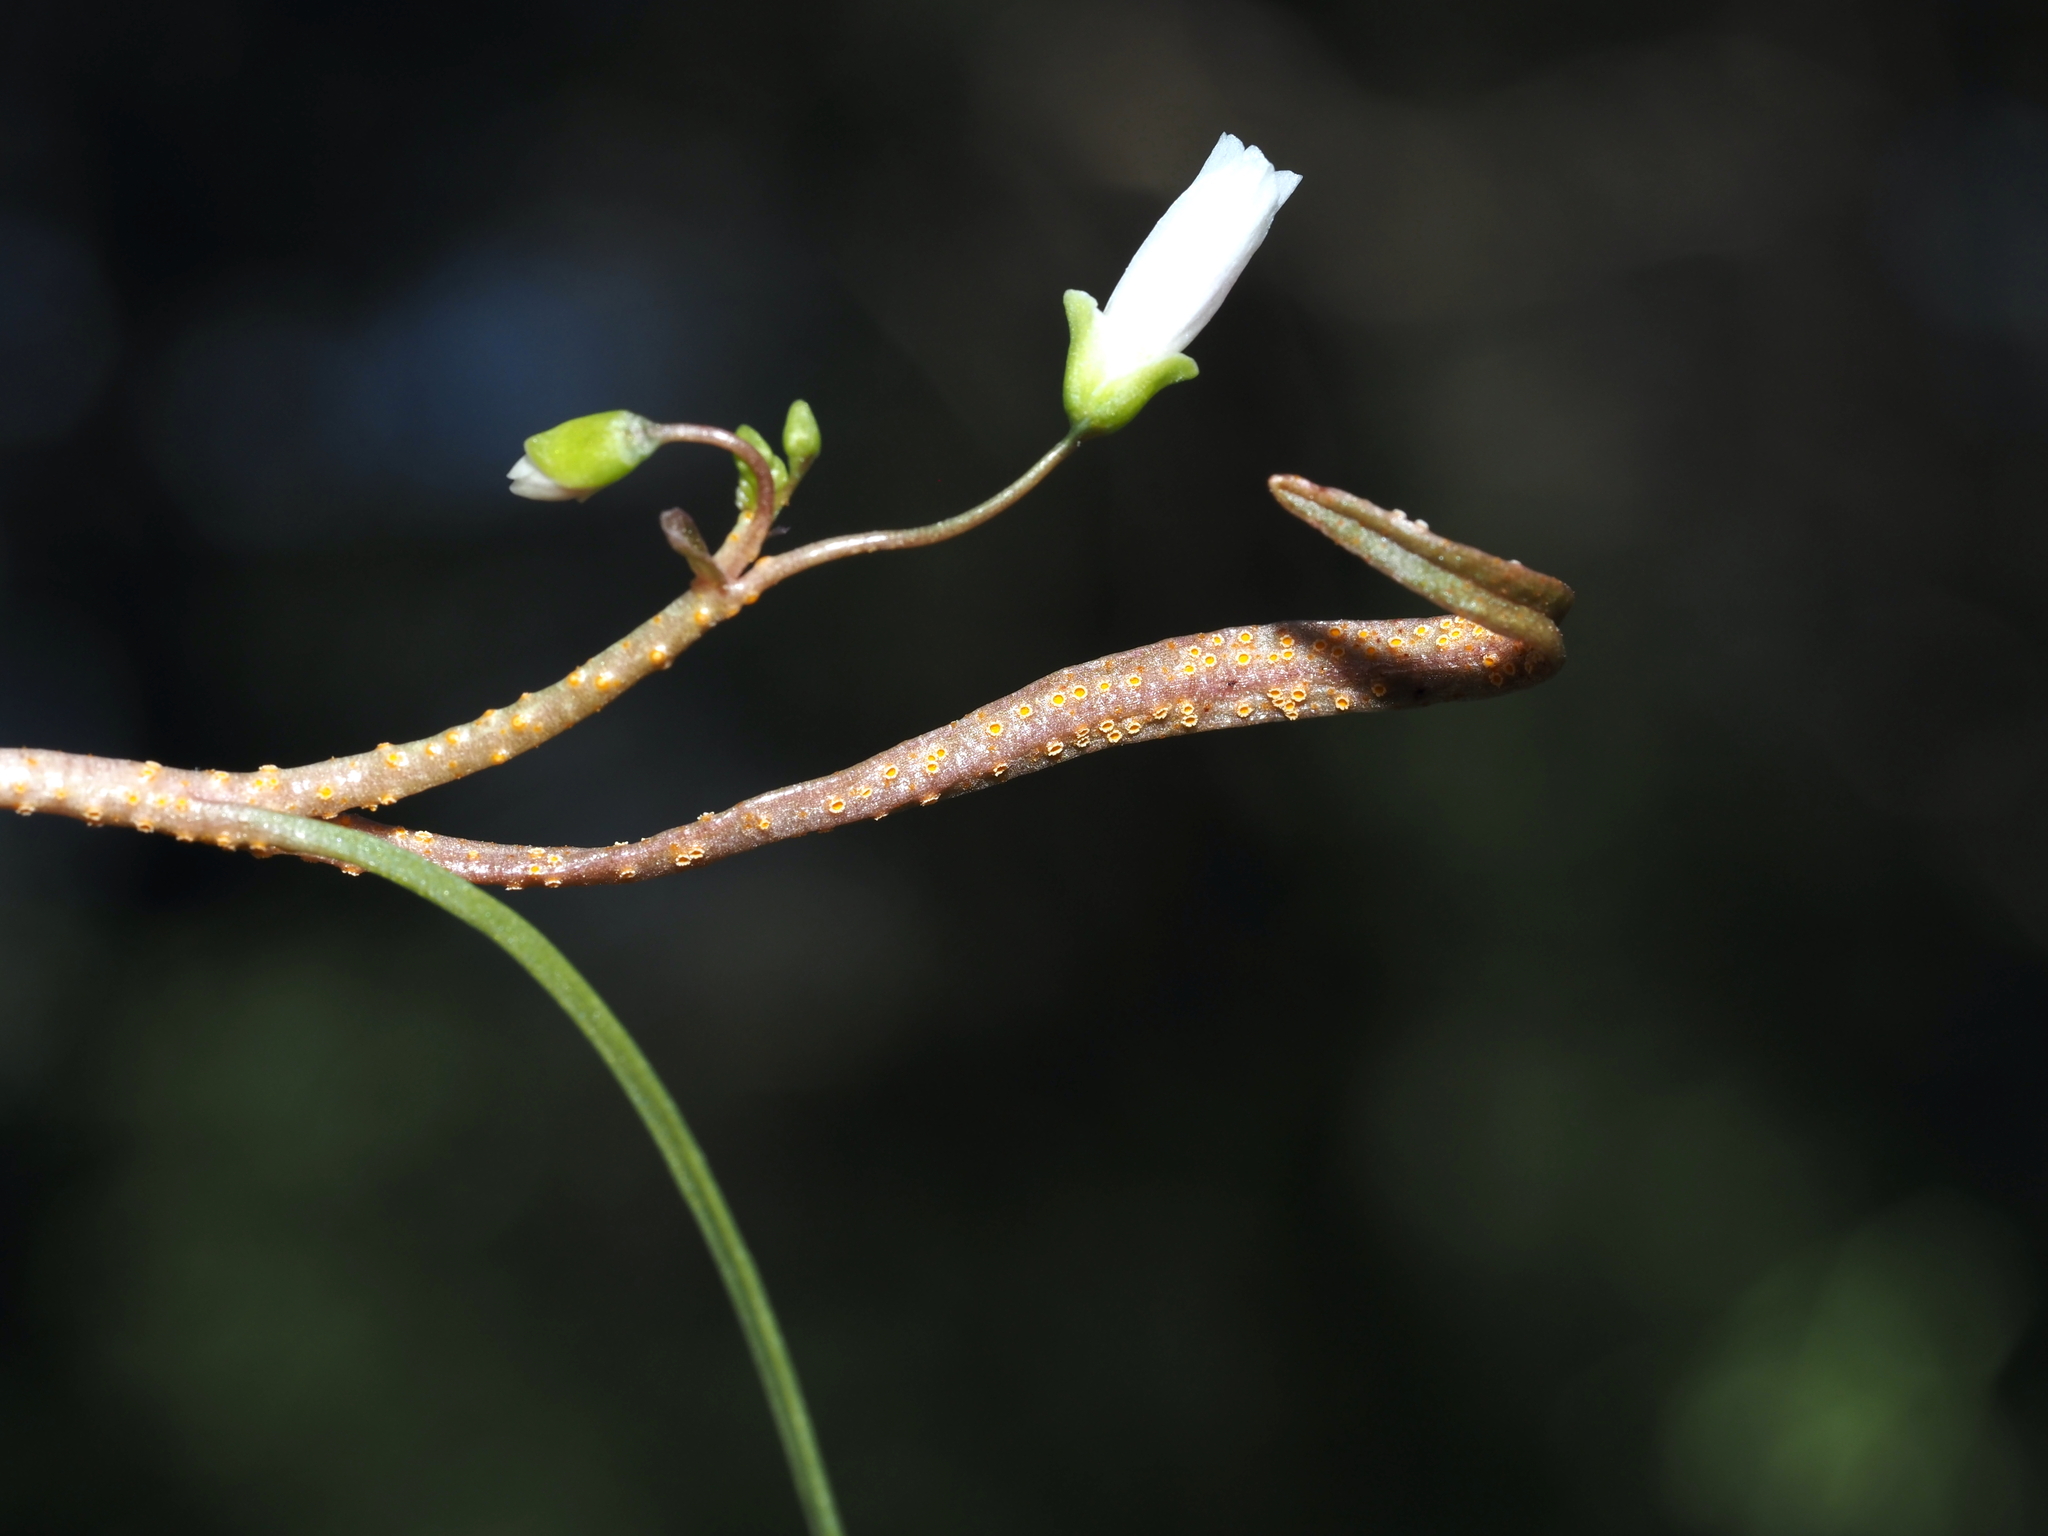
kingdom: Fungi
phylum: Basidiomycota
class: Pucciniomycetes
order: Pucciniales
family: Pucciniaceae
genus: Puccinia
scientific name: Puccinia mariae-wilsoniae
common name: Spring beauty rust
